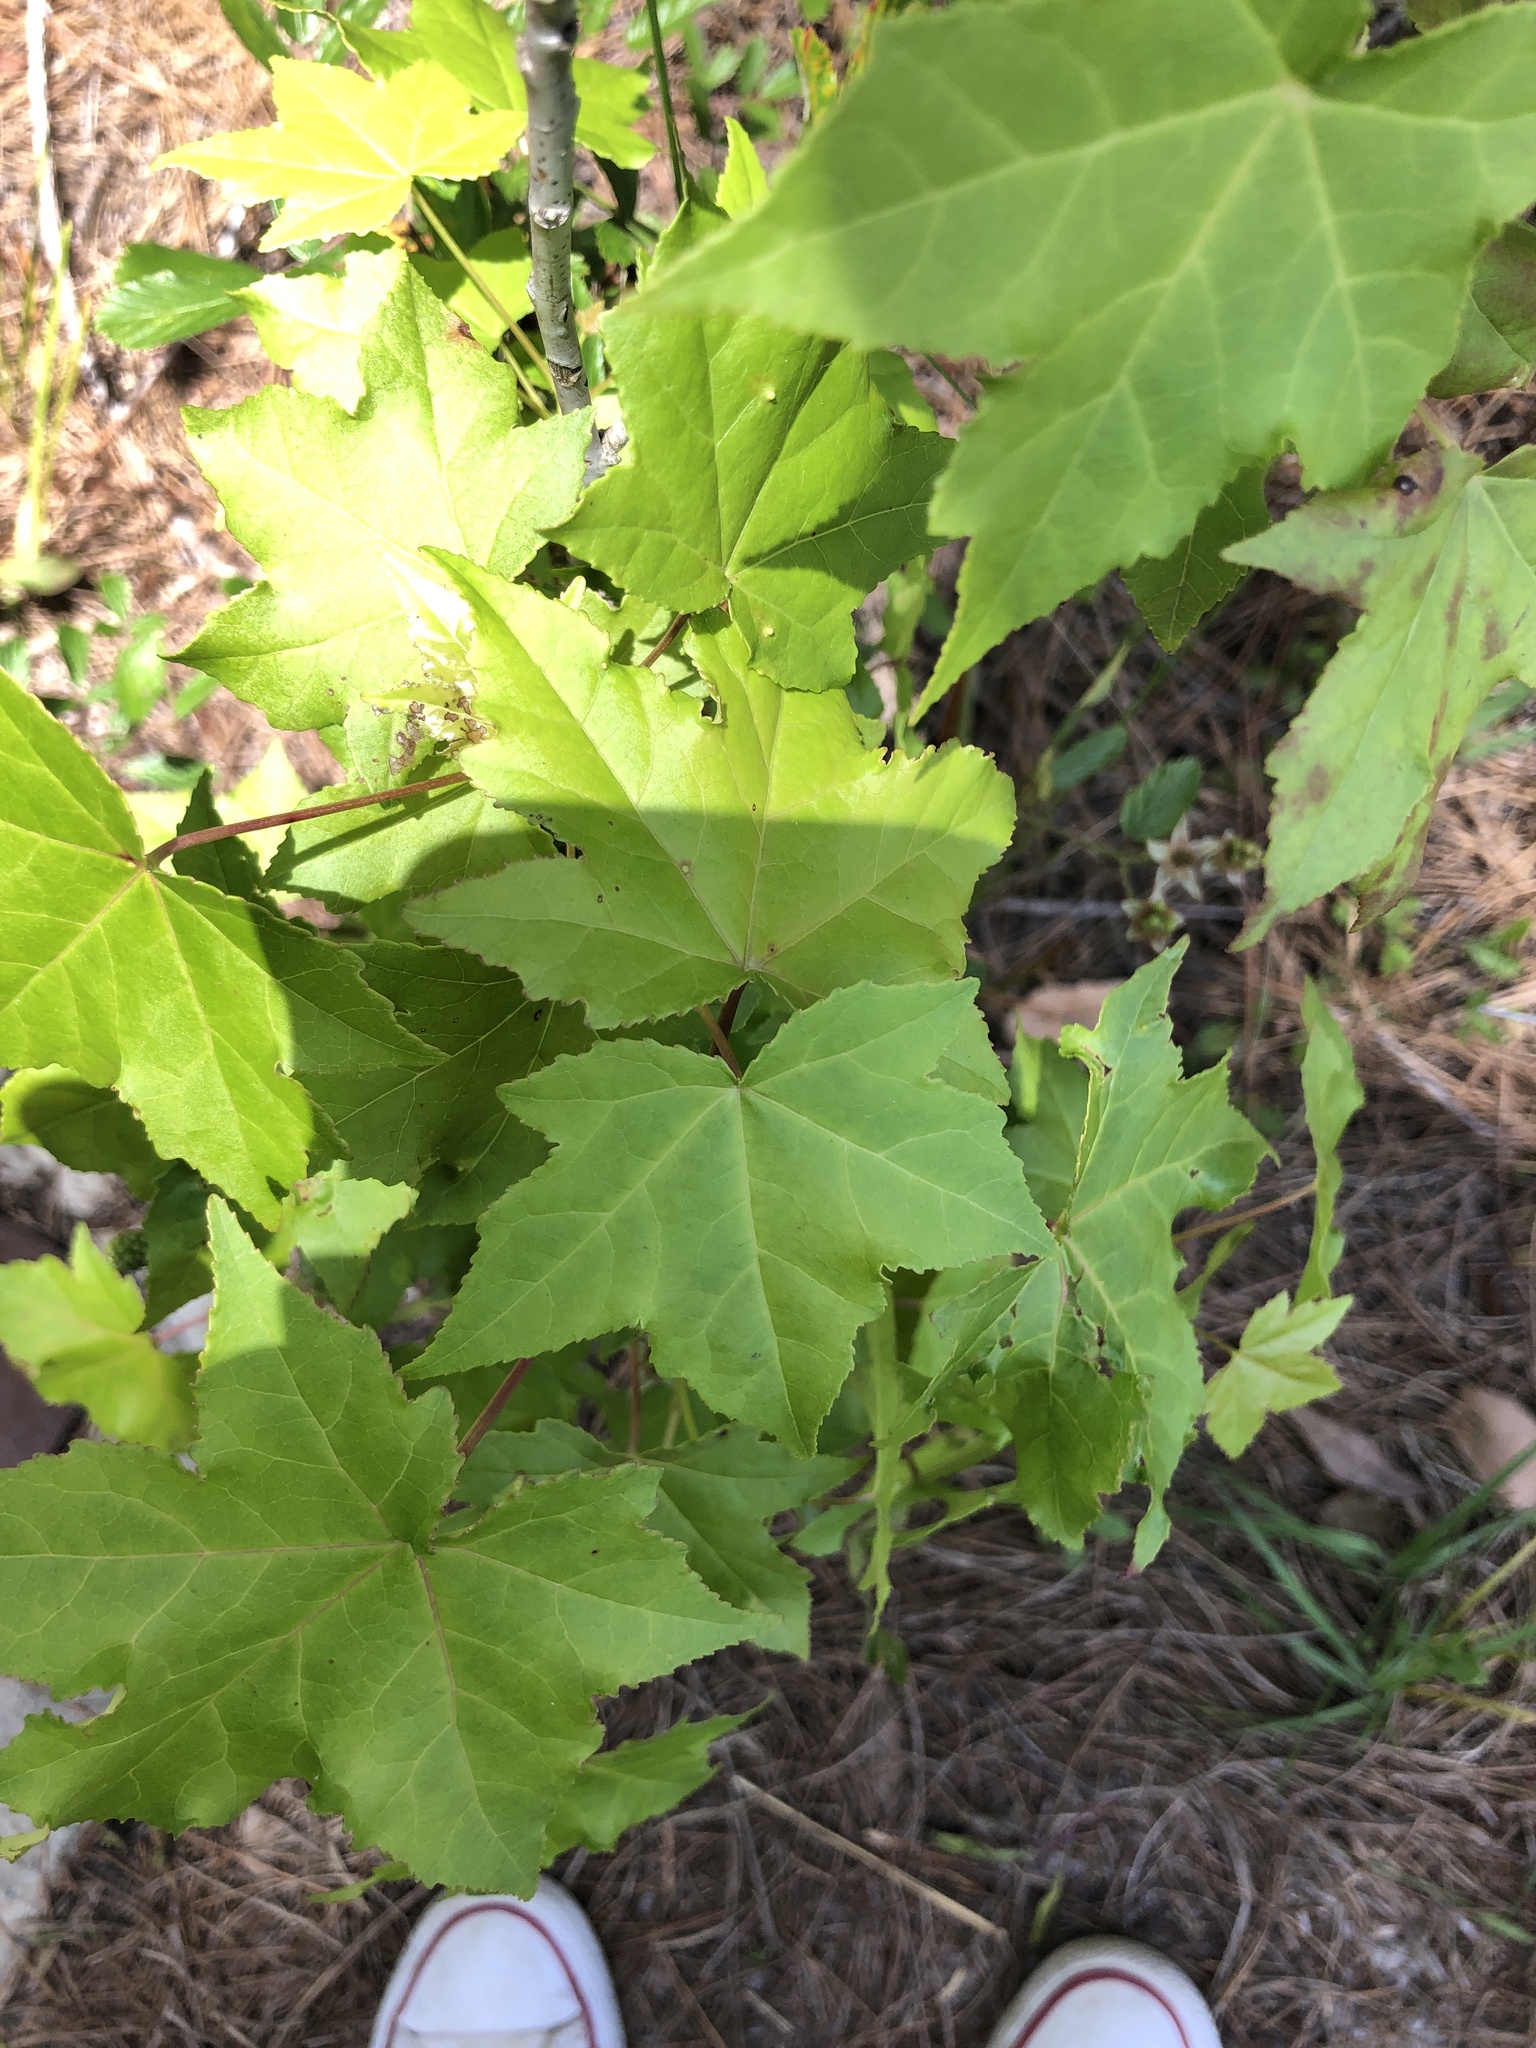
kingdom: Plantae
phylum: Tracheophyta
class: Magnoliopsida
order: Saxifragales
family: Altingiaceae
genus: Liquidambar
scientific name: Liquidambar styraciflua
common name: Sweet gum
